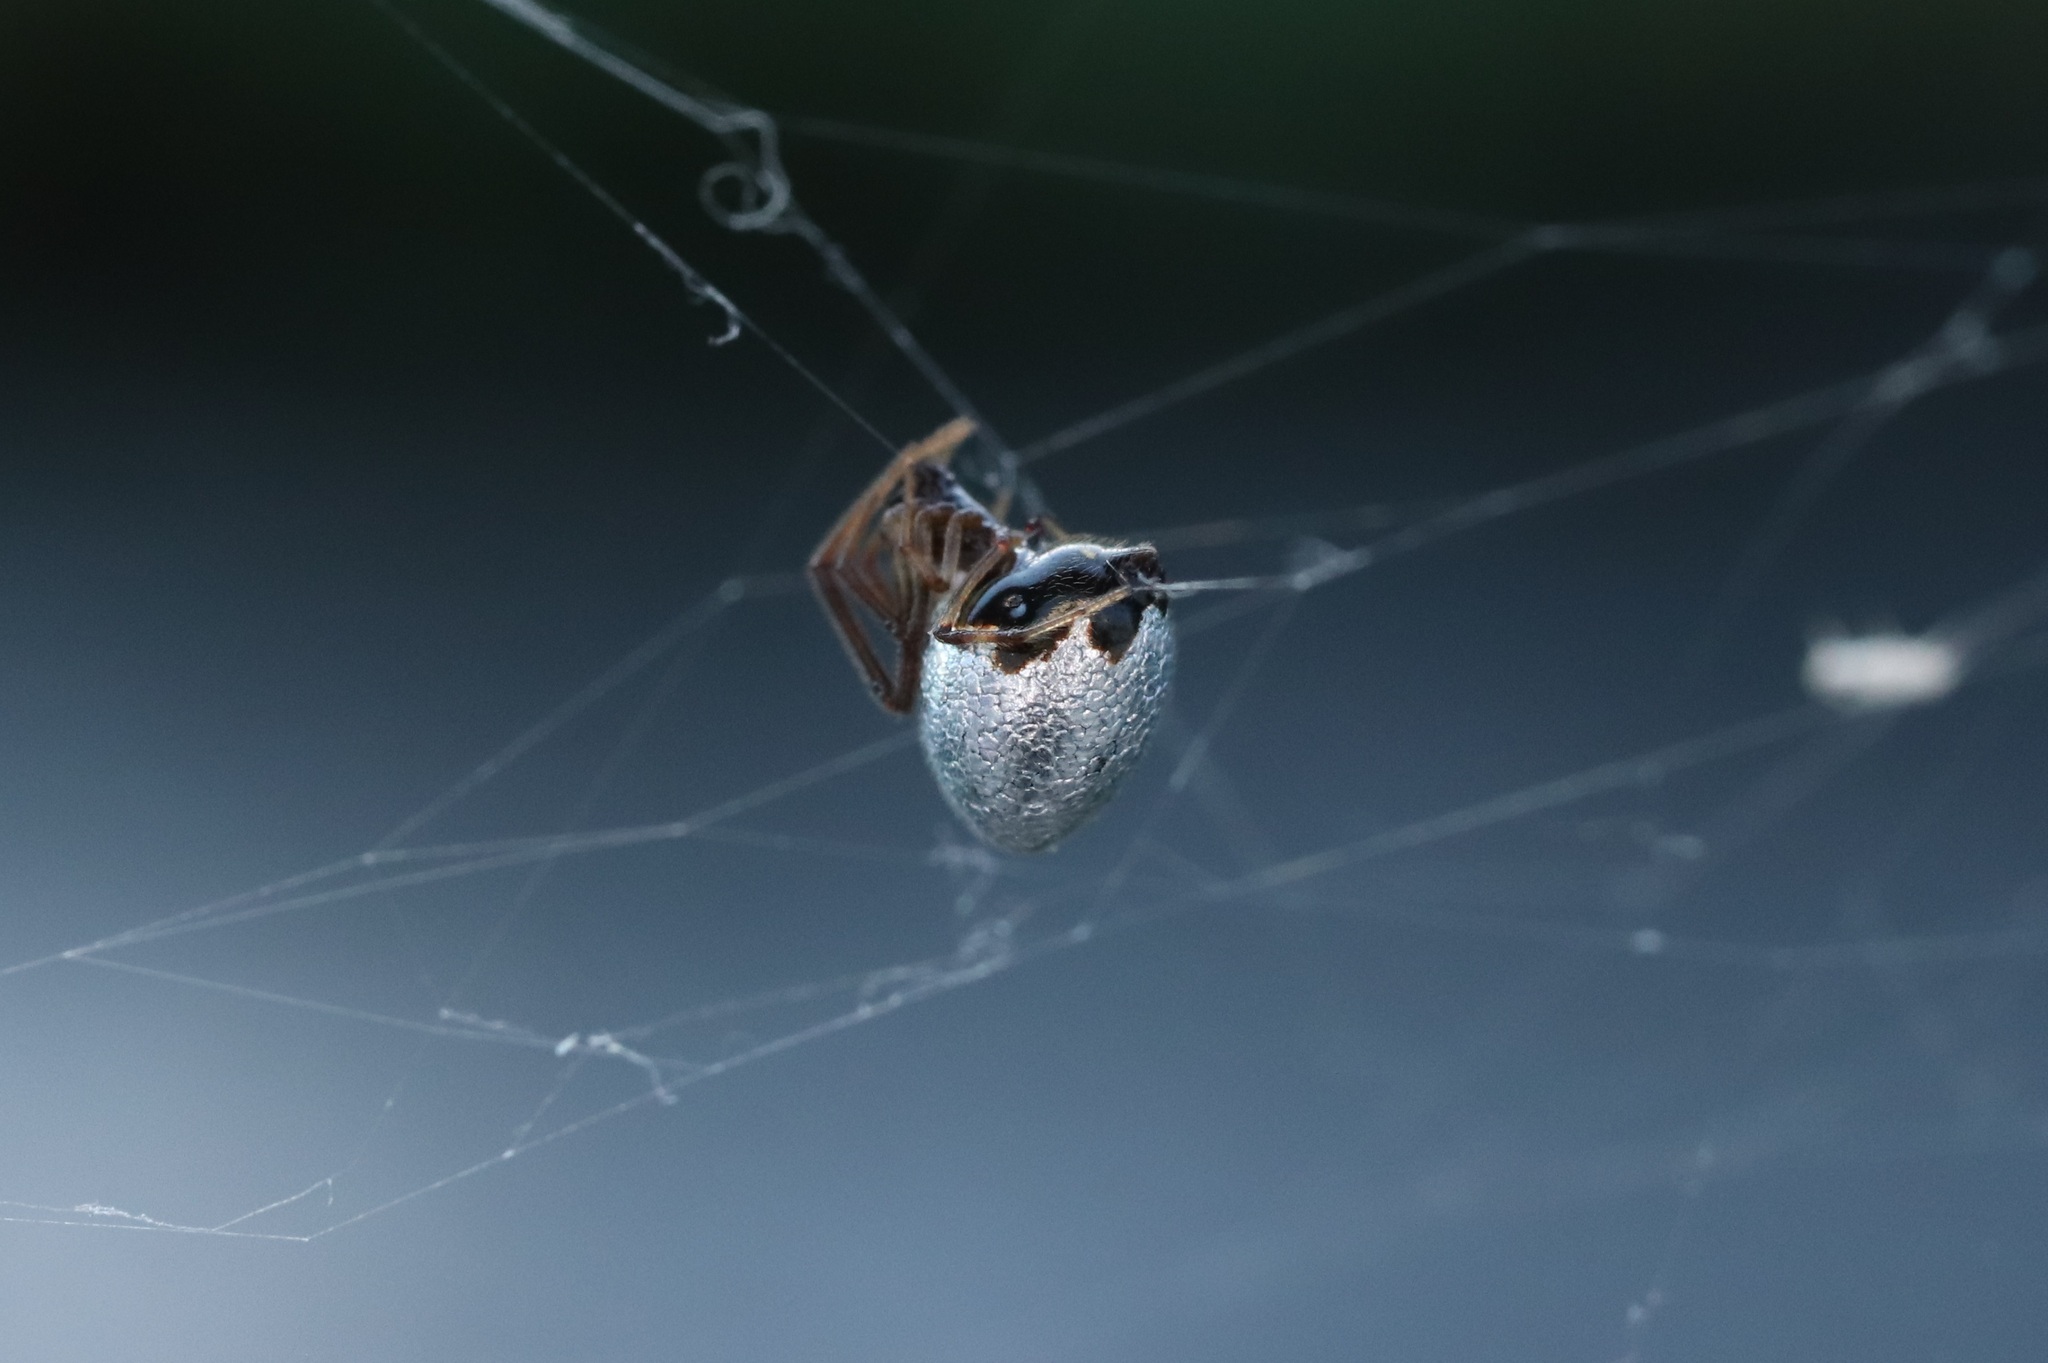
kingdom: Animalia
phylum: Arthropoda
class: Arachnida
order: Araneae
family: Theridiidae
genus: Argyrodes
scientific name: Argyrodes bonadea
